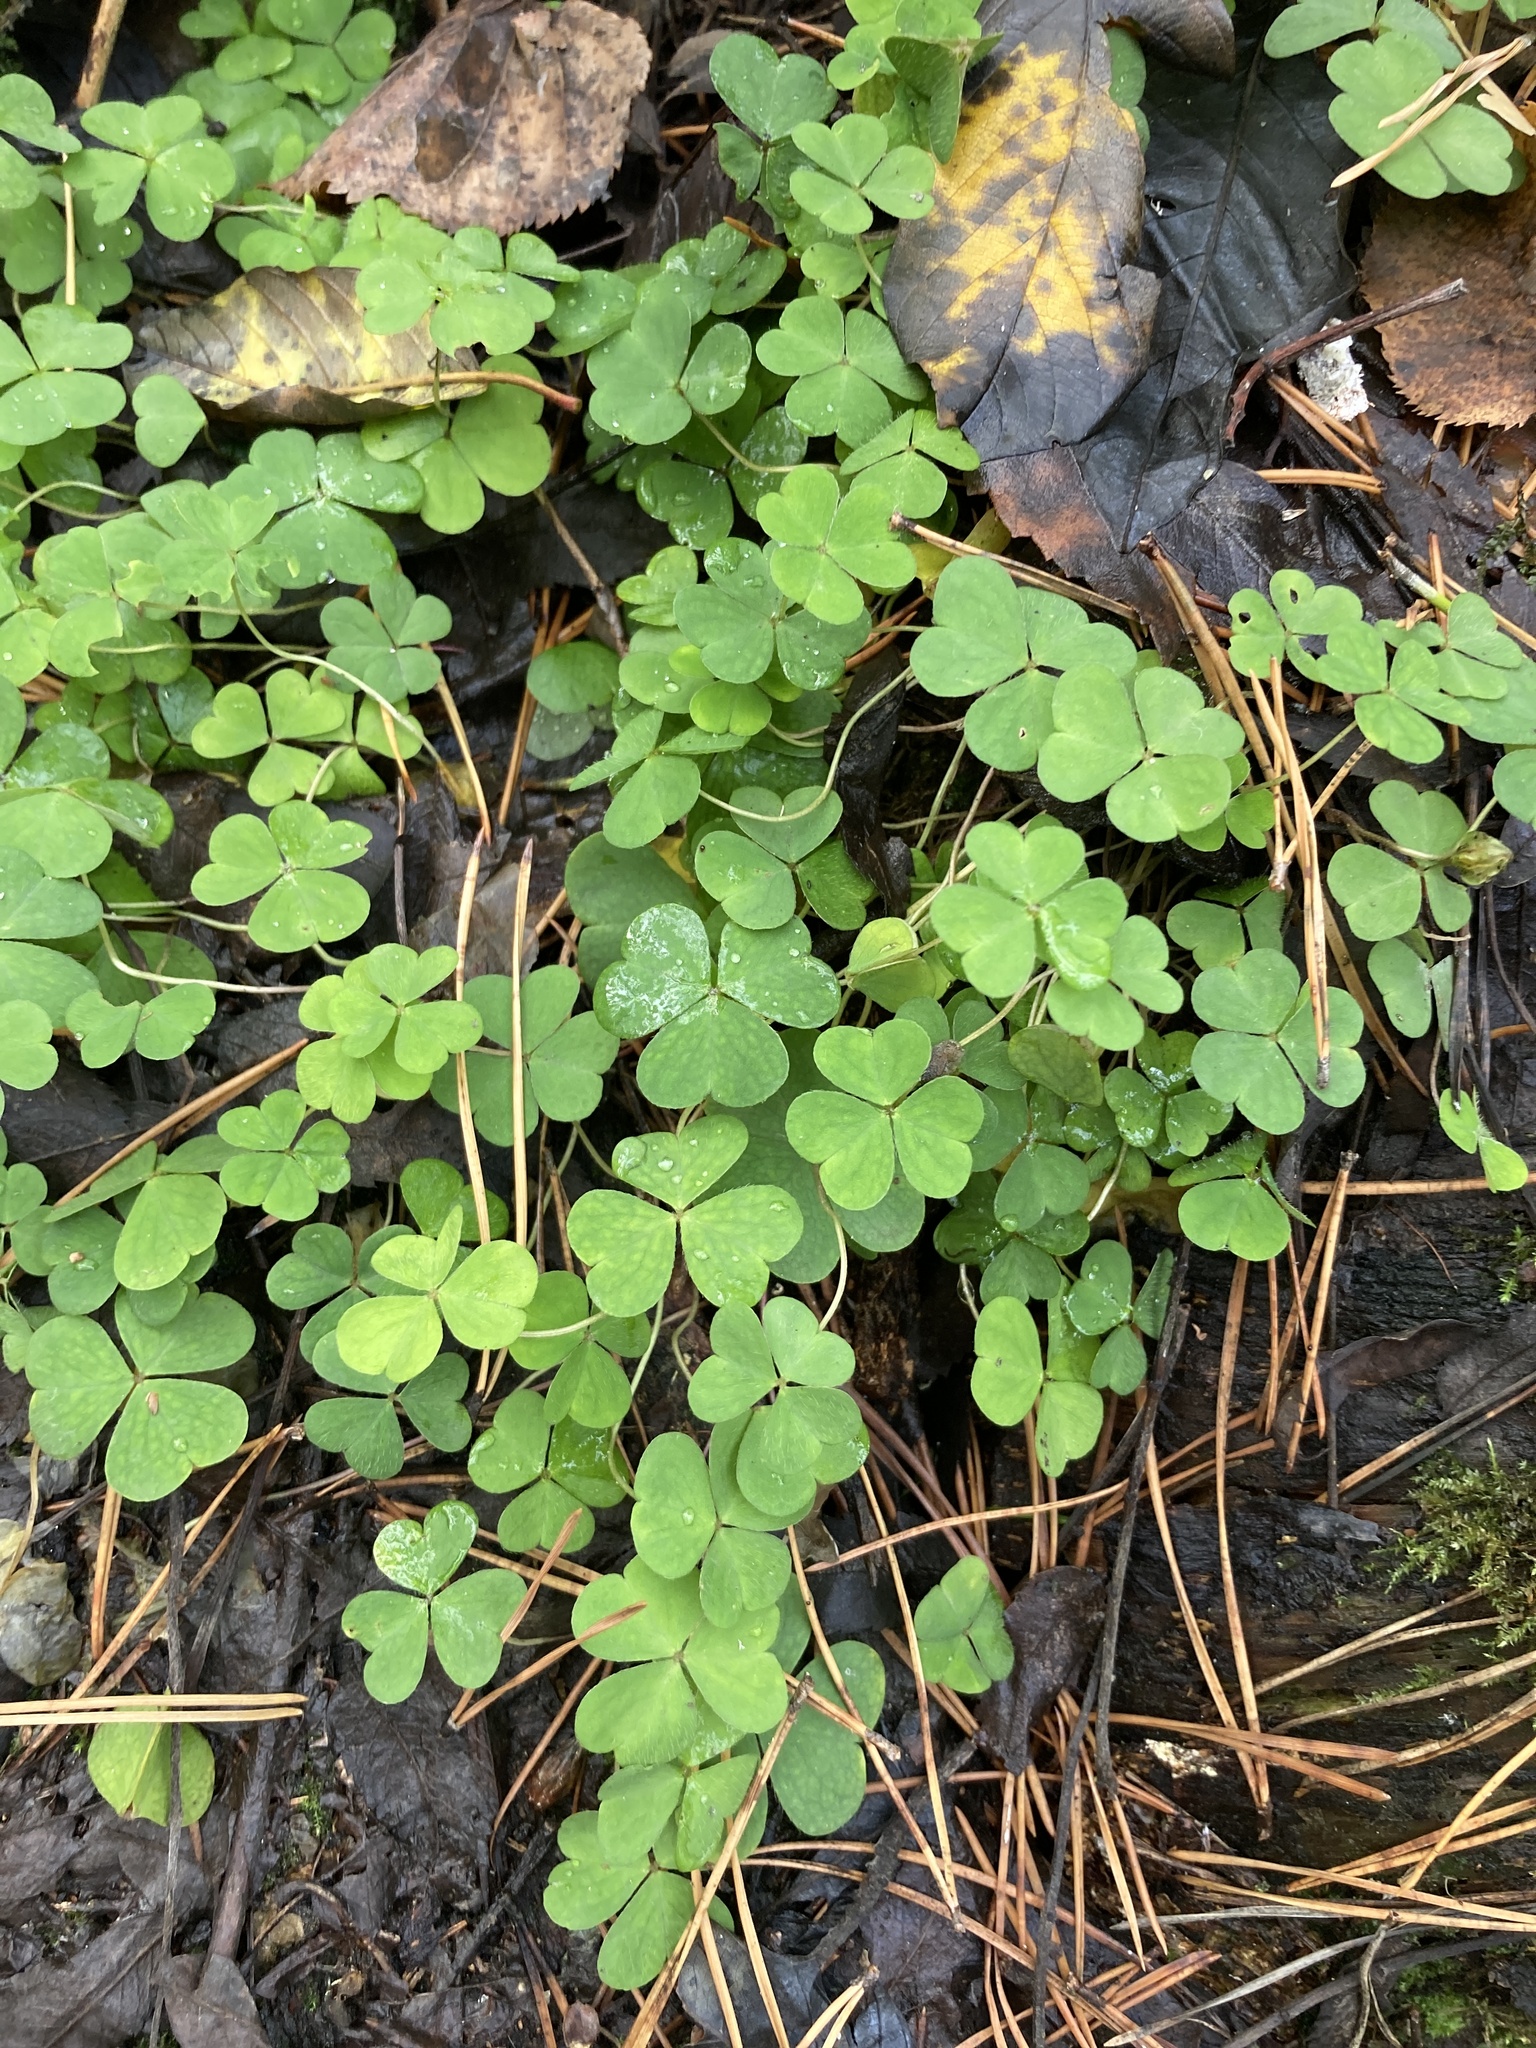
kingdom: Plantae
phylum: Tracheophyta
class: Magnoliopsida
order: Oxalidales
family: Oxalidaceae
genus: Oxalis
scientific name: Oxalis acetosella
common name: Wood-sorrel
